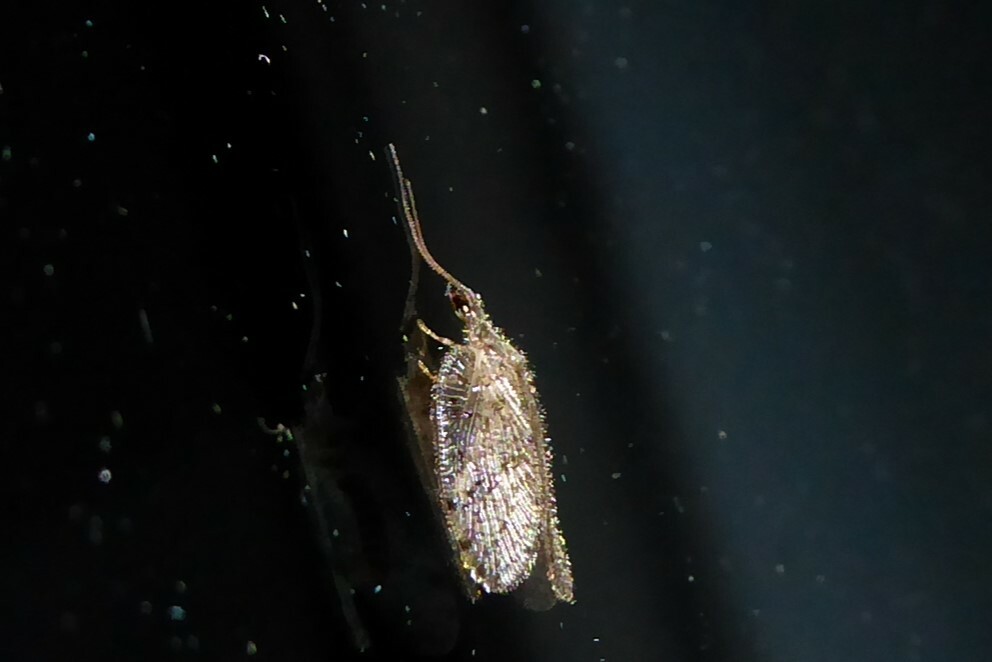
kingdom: Animalia
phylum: Arthropoda
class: Insecta
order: Neuroptera
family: Hemerobiidae
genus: Psectra
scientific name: Psectra nakaharai
